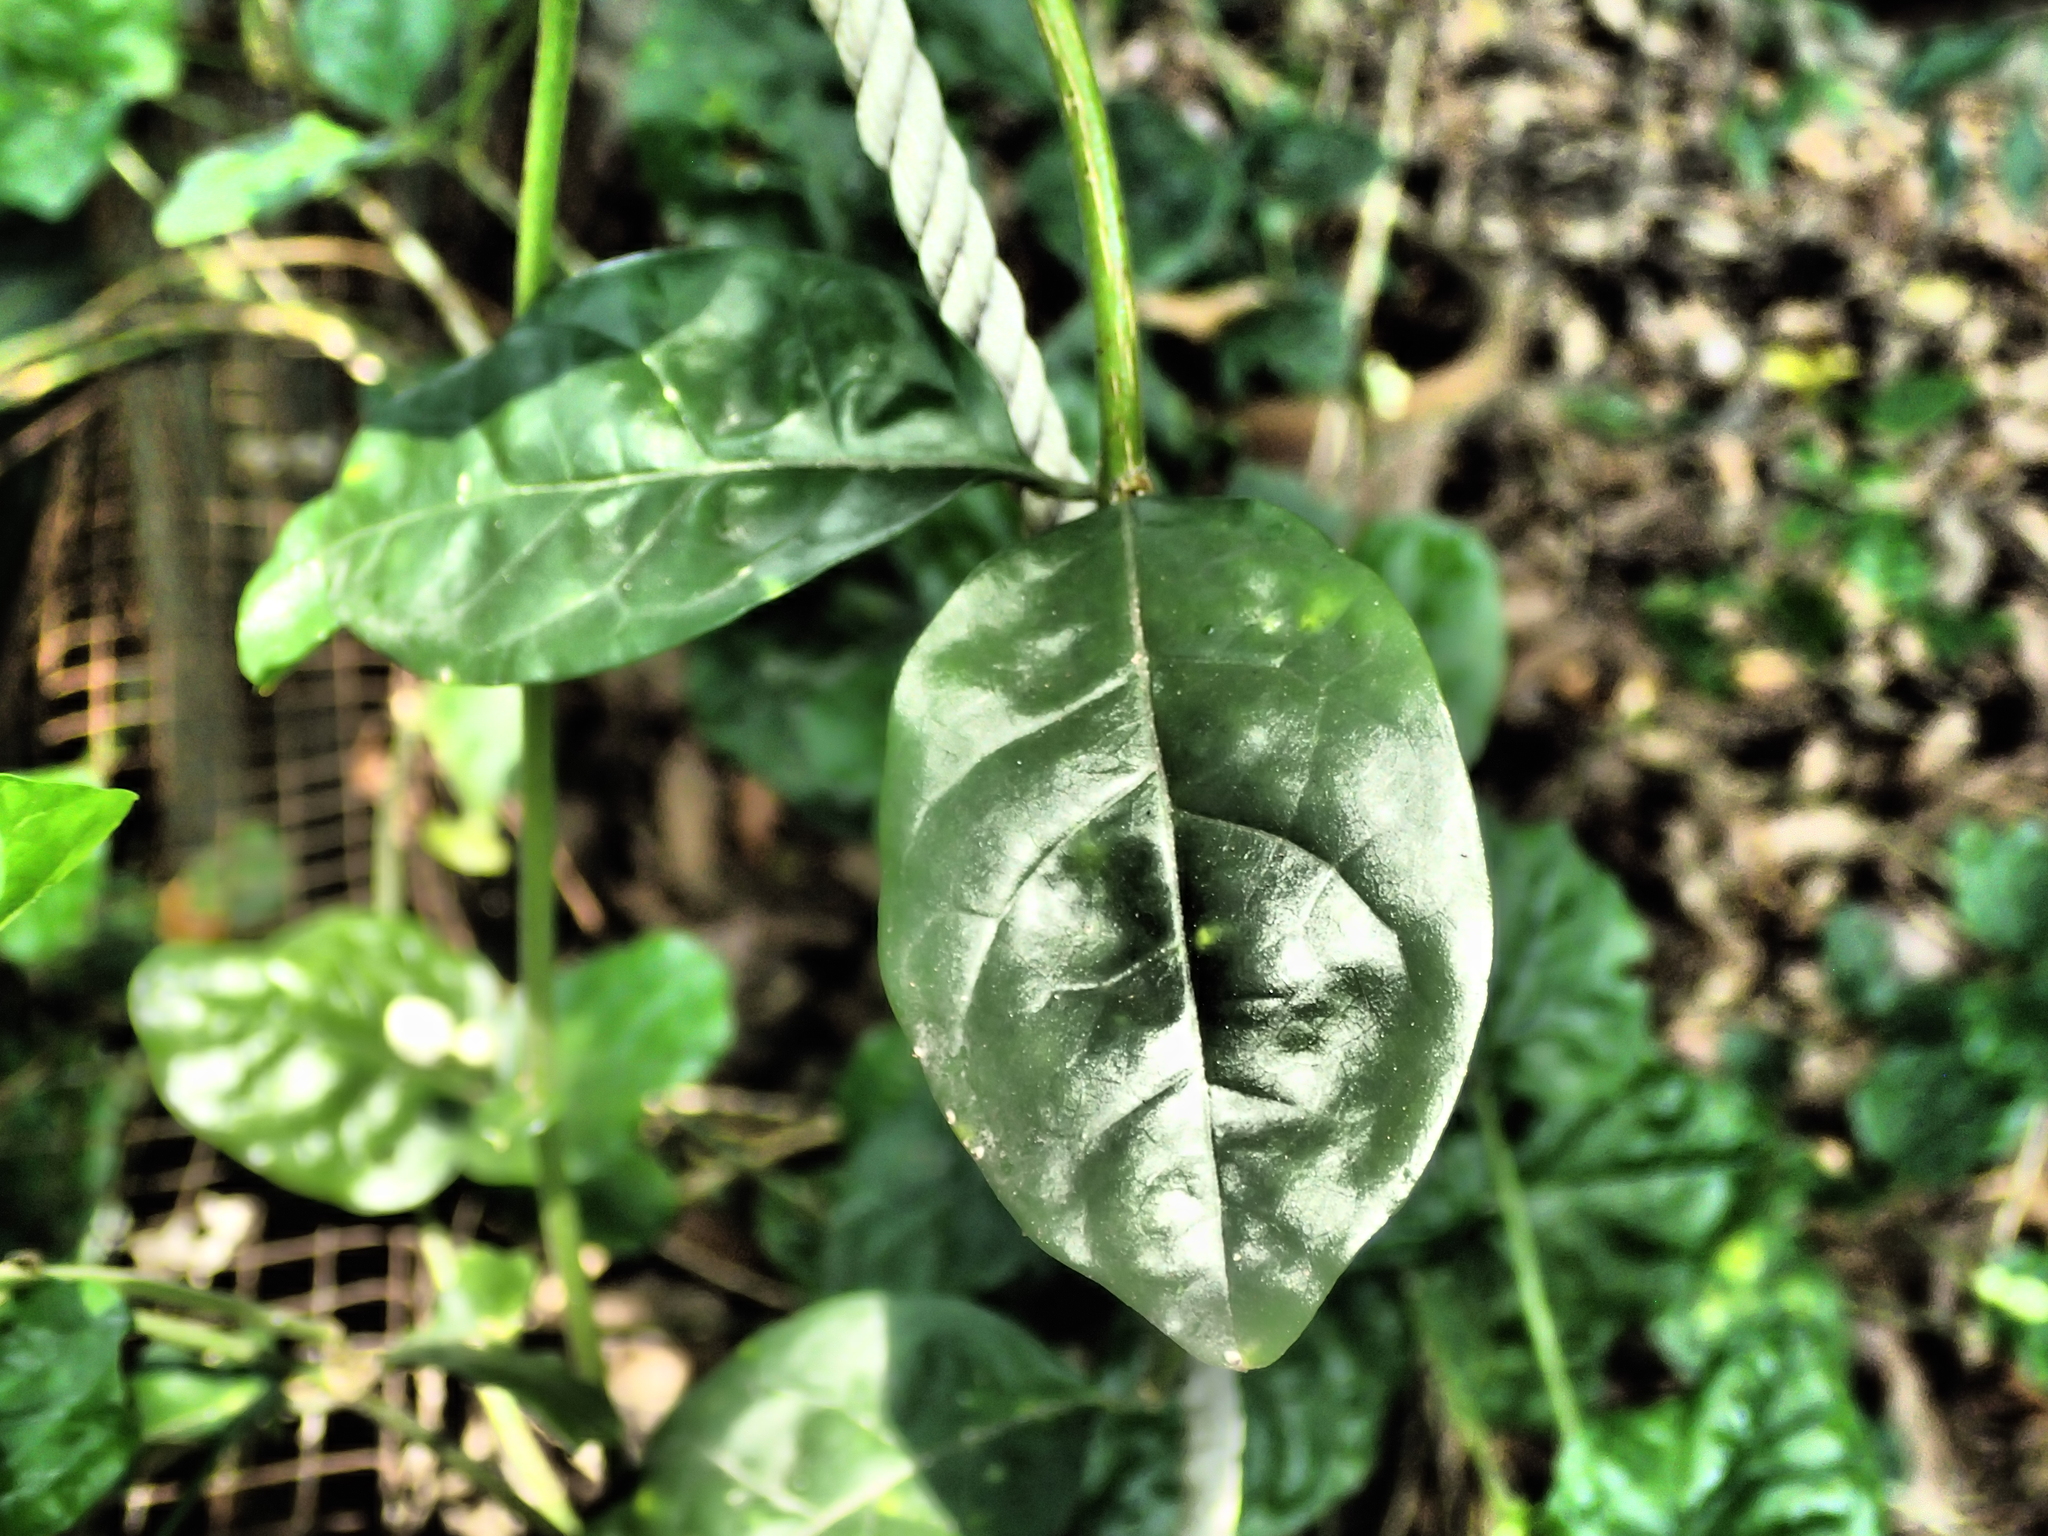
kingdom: Plantae
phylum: Tracheophyta
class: Magnoliopsida
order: Caryophyllales
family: Basellaceae
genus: Anredera
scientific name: Anredera cordifolia
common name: Heartleaf madeiravine
